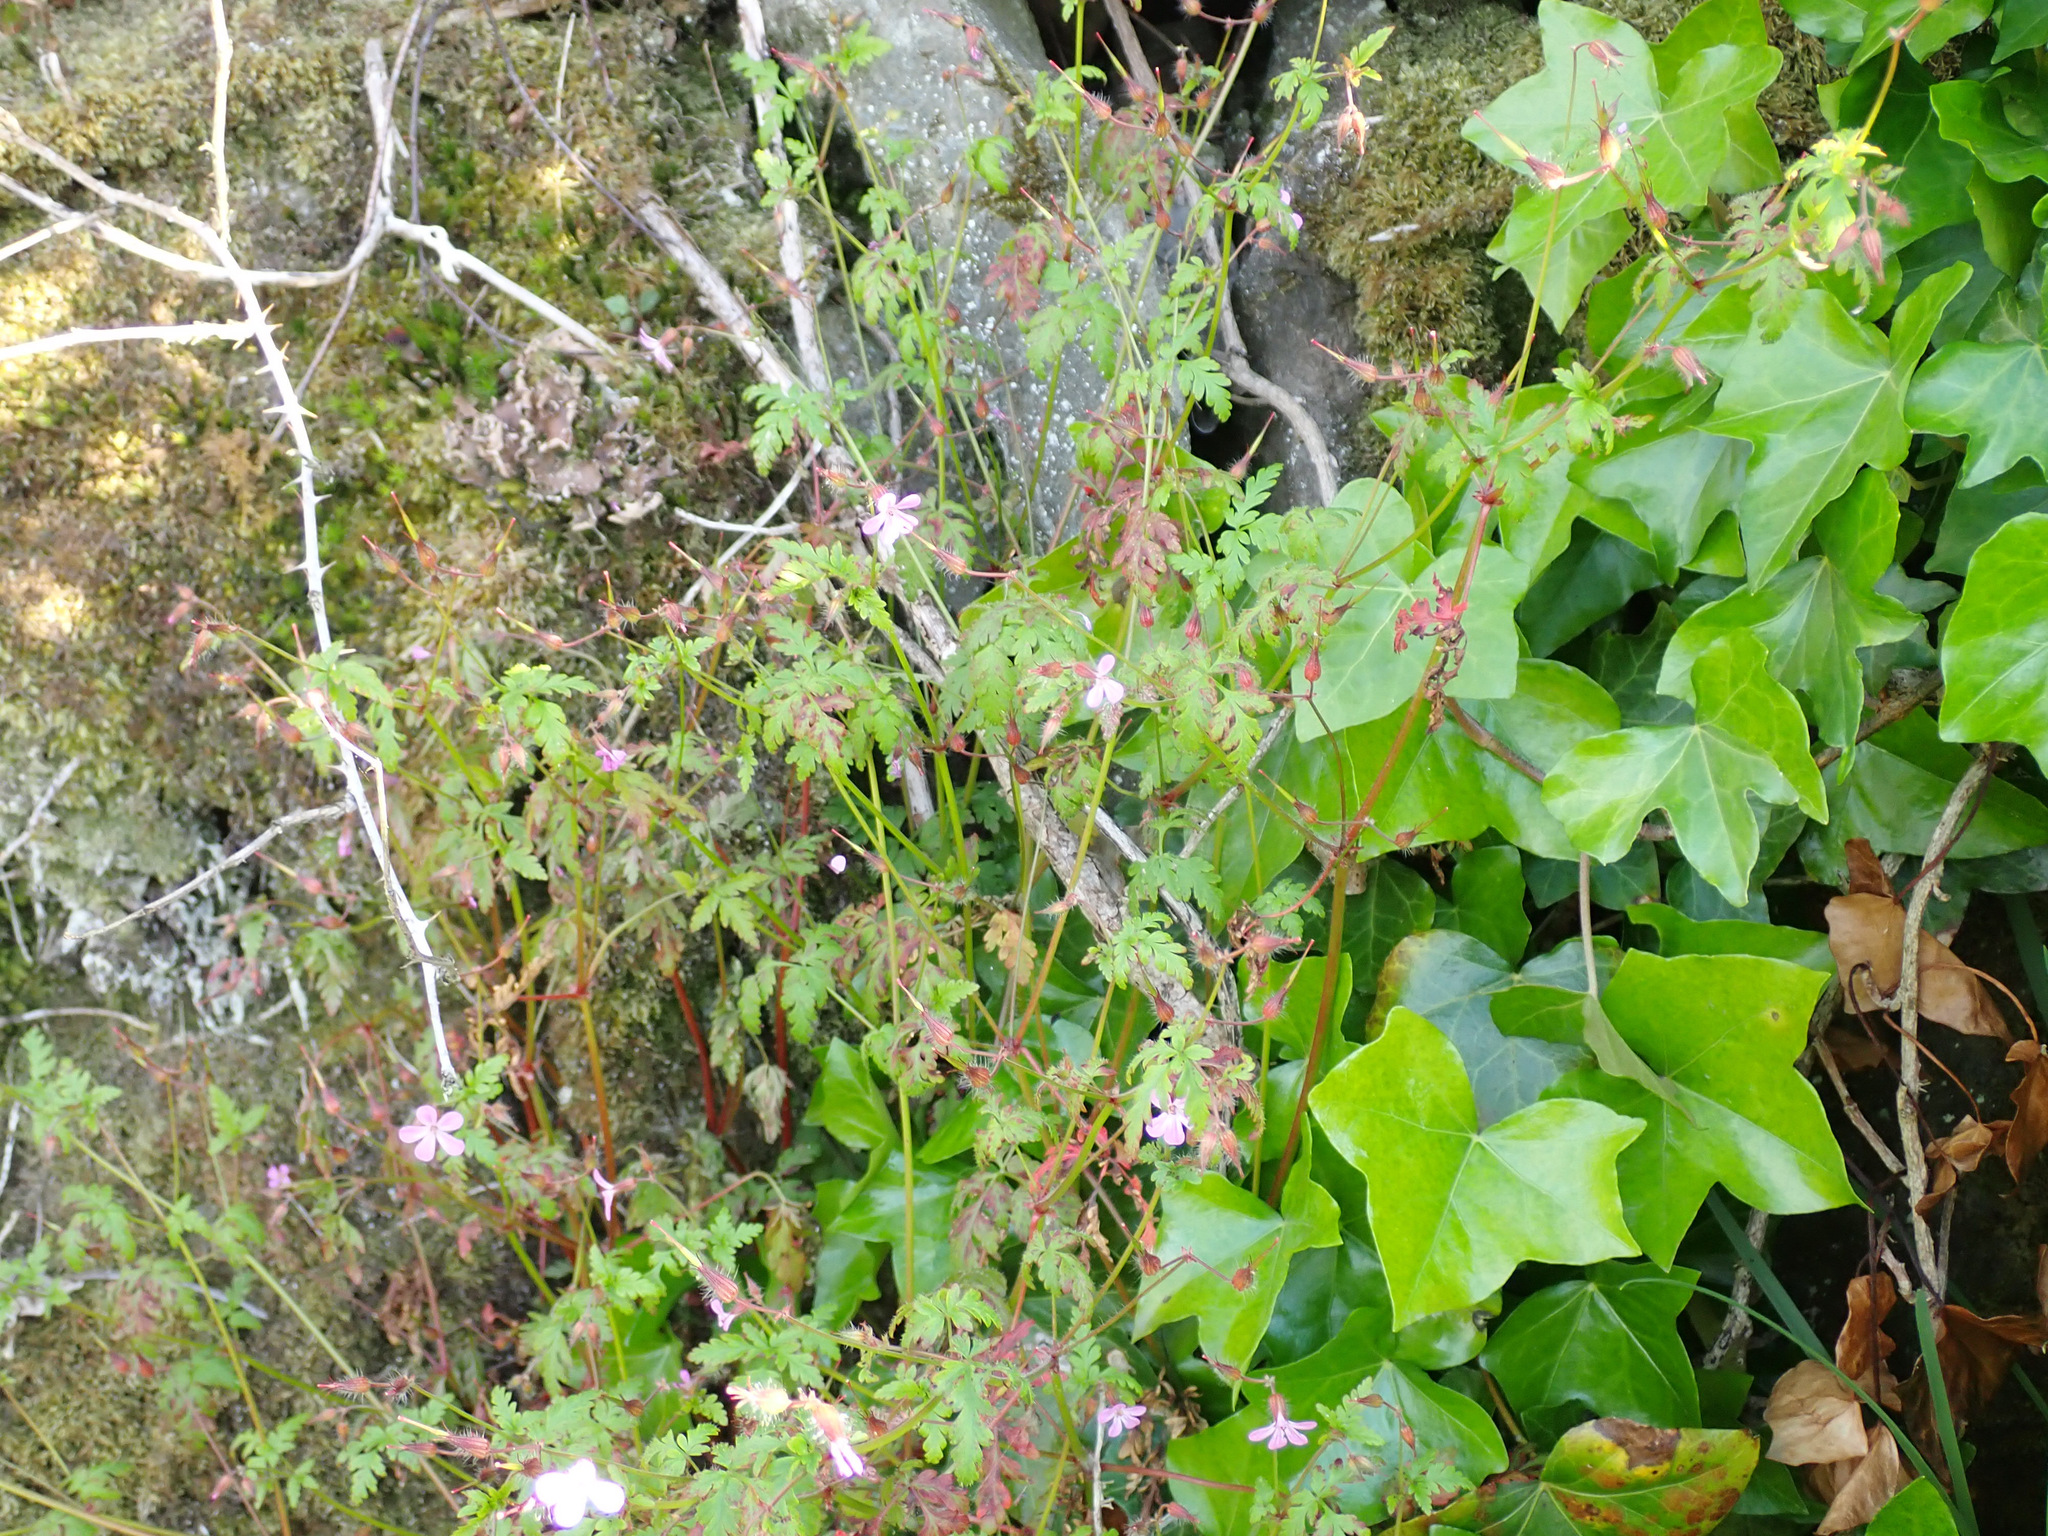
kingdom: Plantae
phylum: Tracheophyta
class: Magnoliopsida
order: Geraniales
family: Geraniaceae
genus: Geranium
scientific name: Geranium robertianum
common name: Herb-robert
